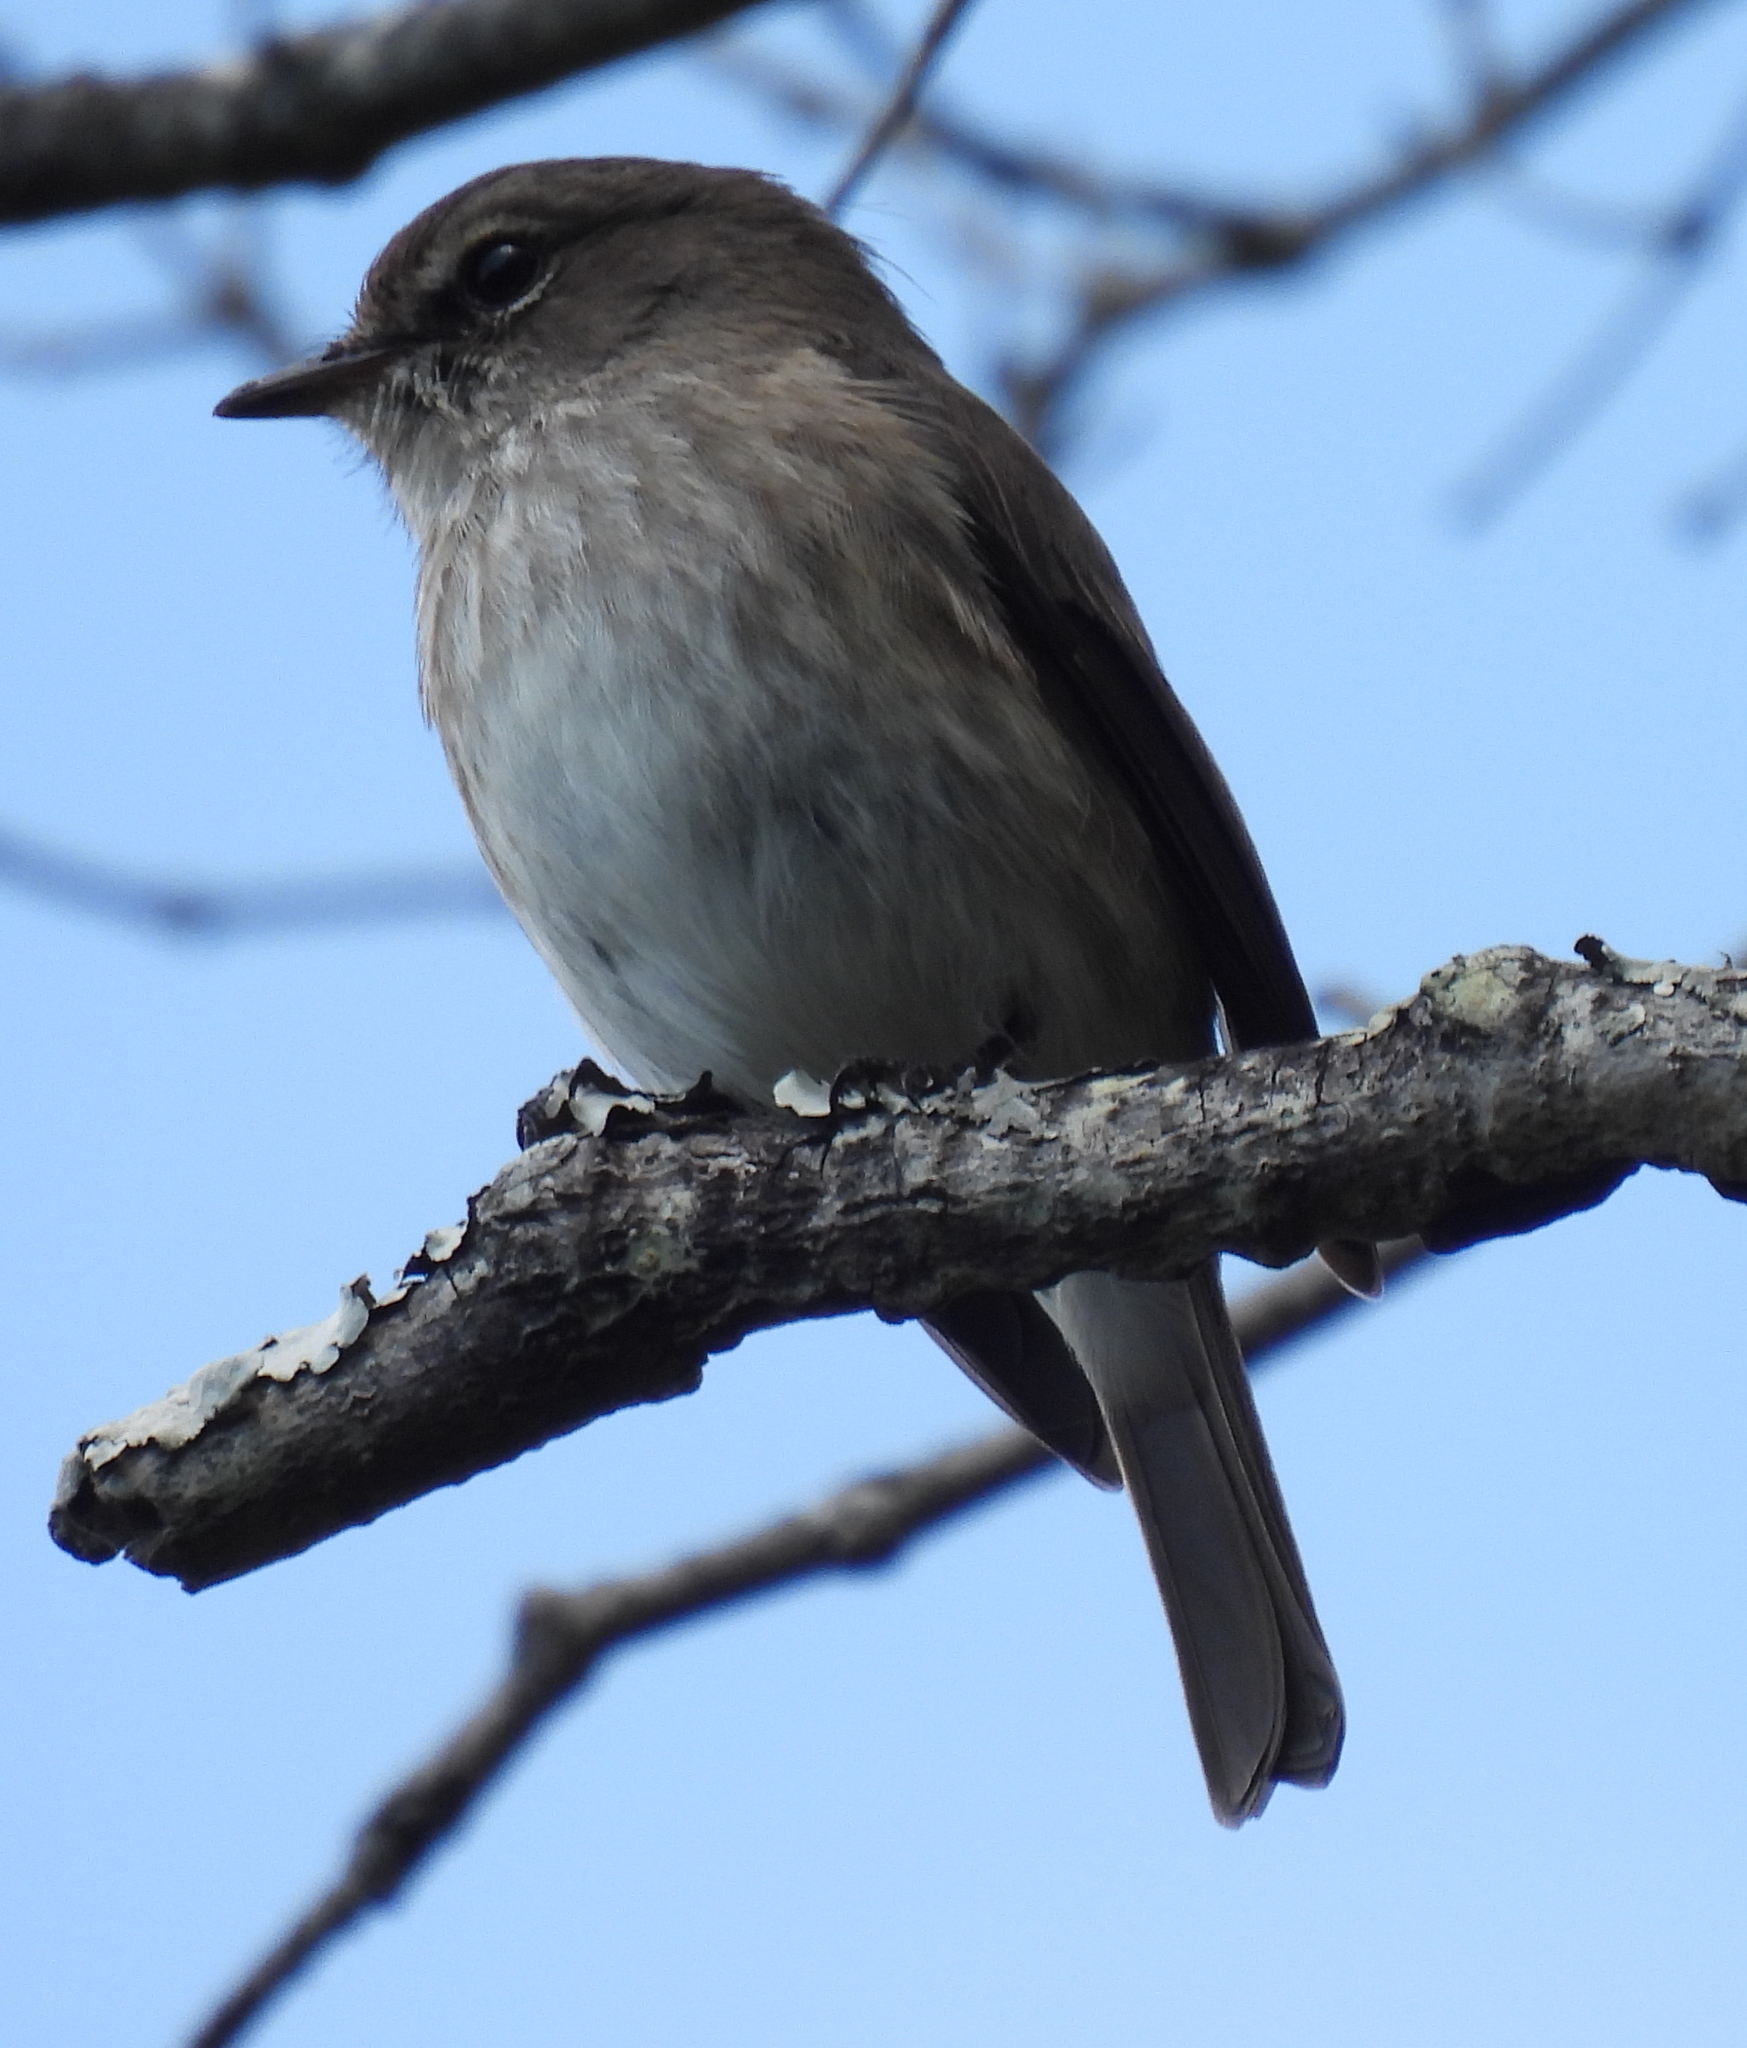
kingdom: Animalia
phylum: Chordata
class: Aves
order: Passeriformes
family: Muscicapidae
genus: Muscicapa
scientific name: Muscicapa adusta
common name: African dusky flycatcher
